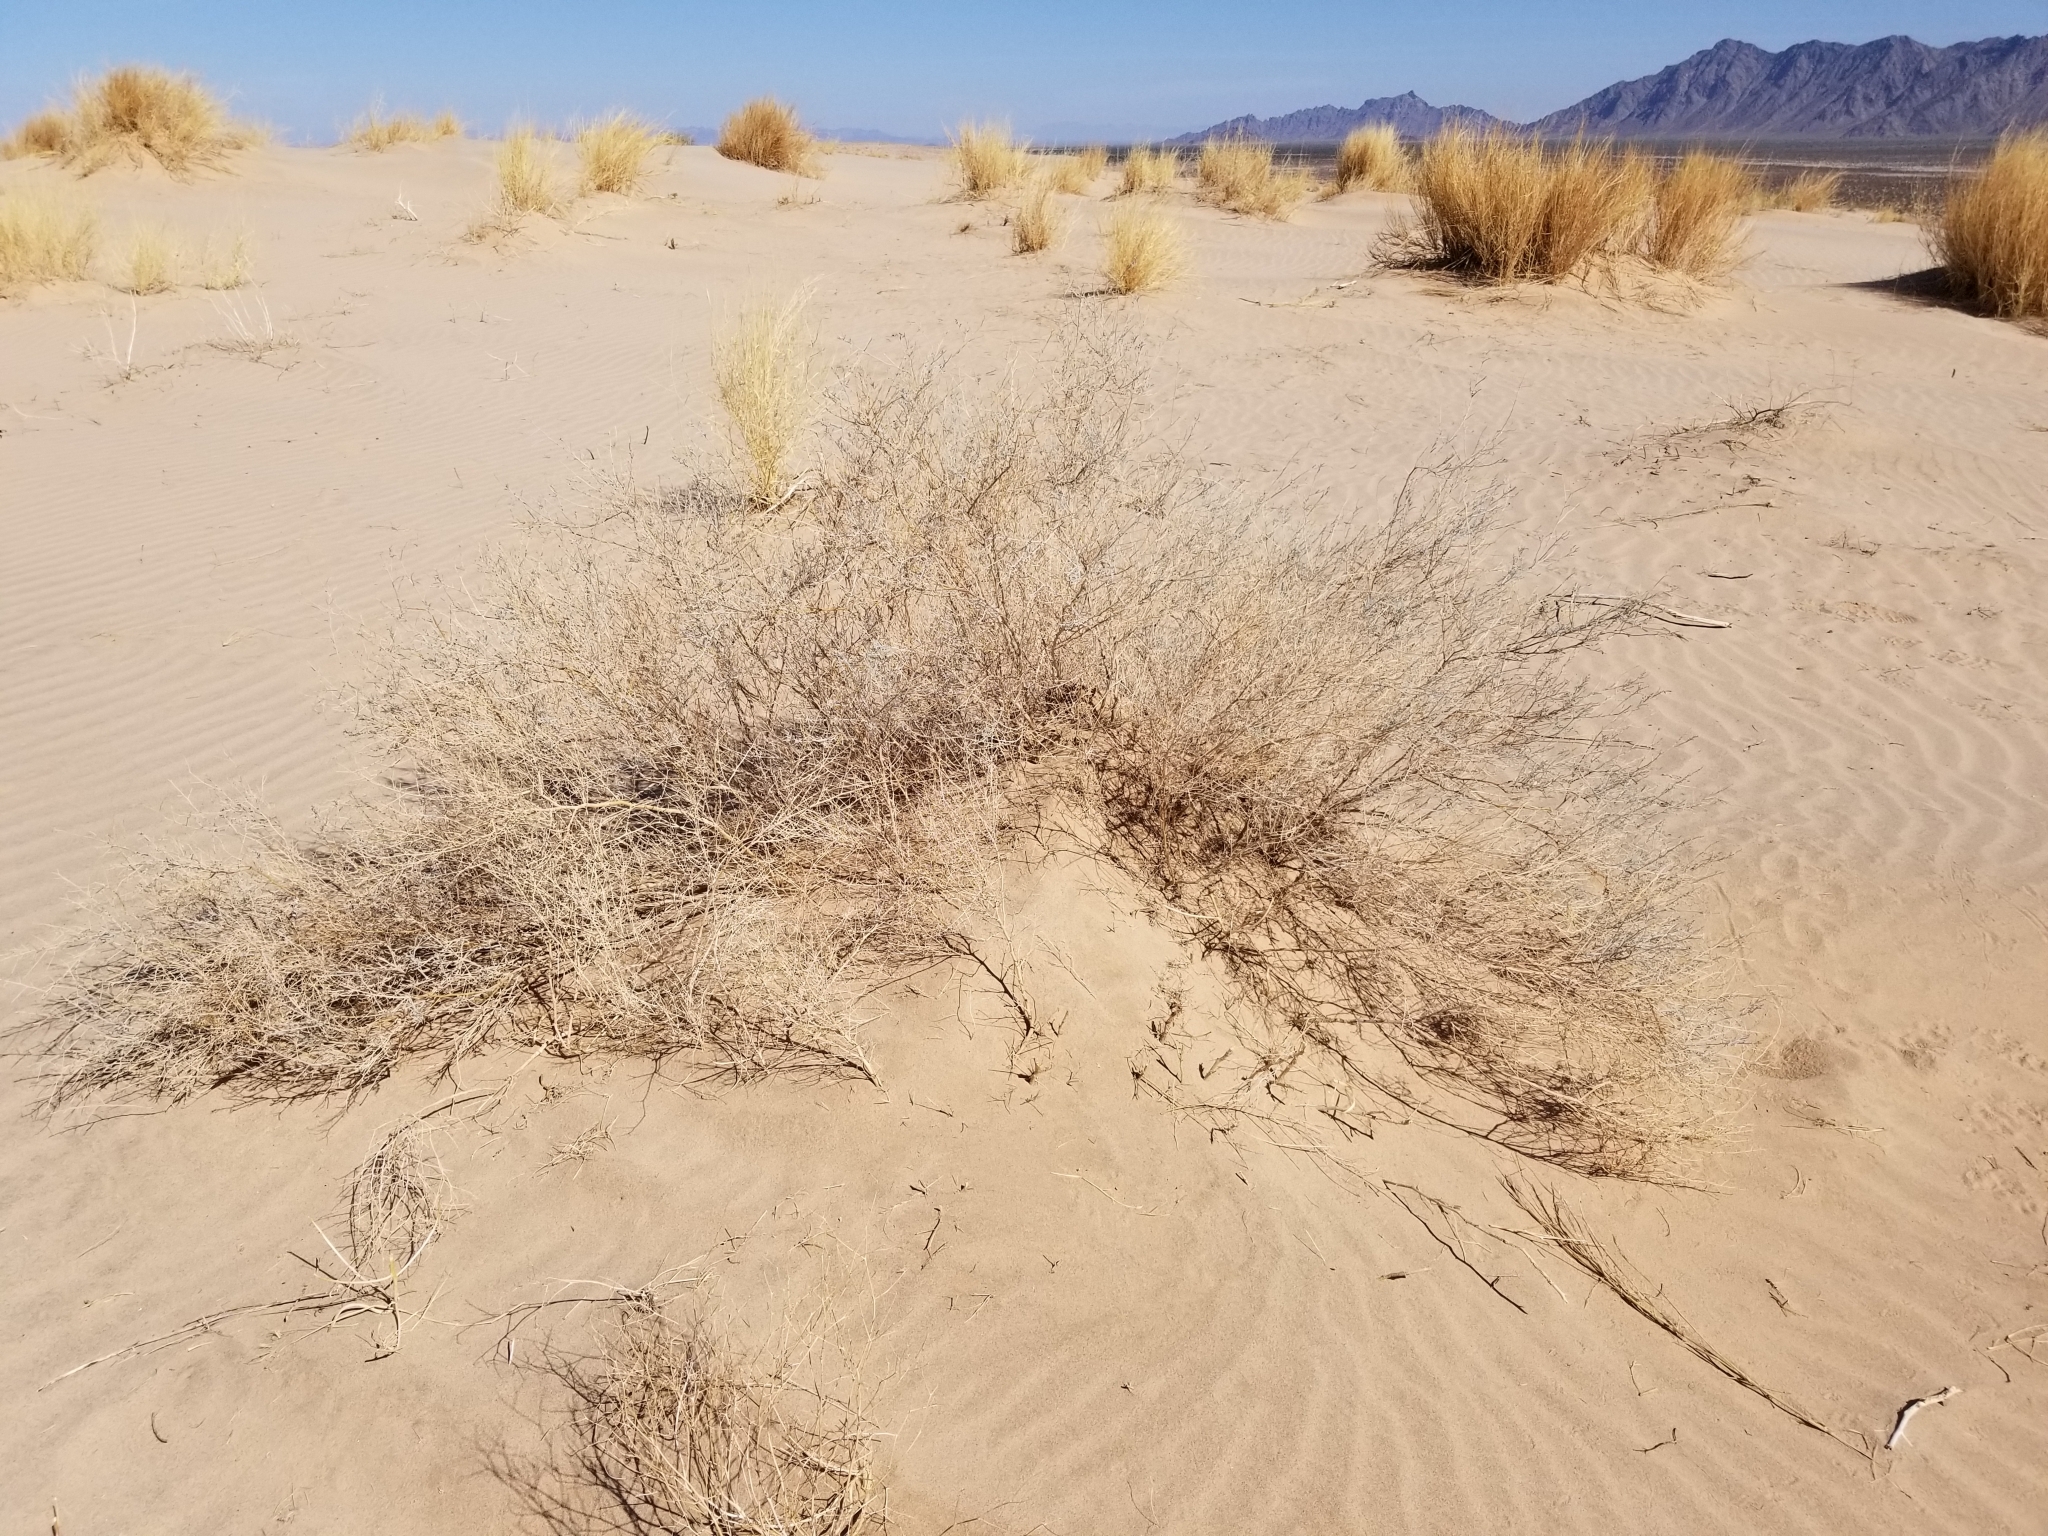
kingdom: Plantae
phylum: Tracheophyta
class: Magnoliopsida
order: Fabales
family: Fabaceae
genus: Psorothamnus
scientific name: Psorothamnus emoryi
